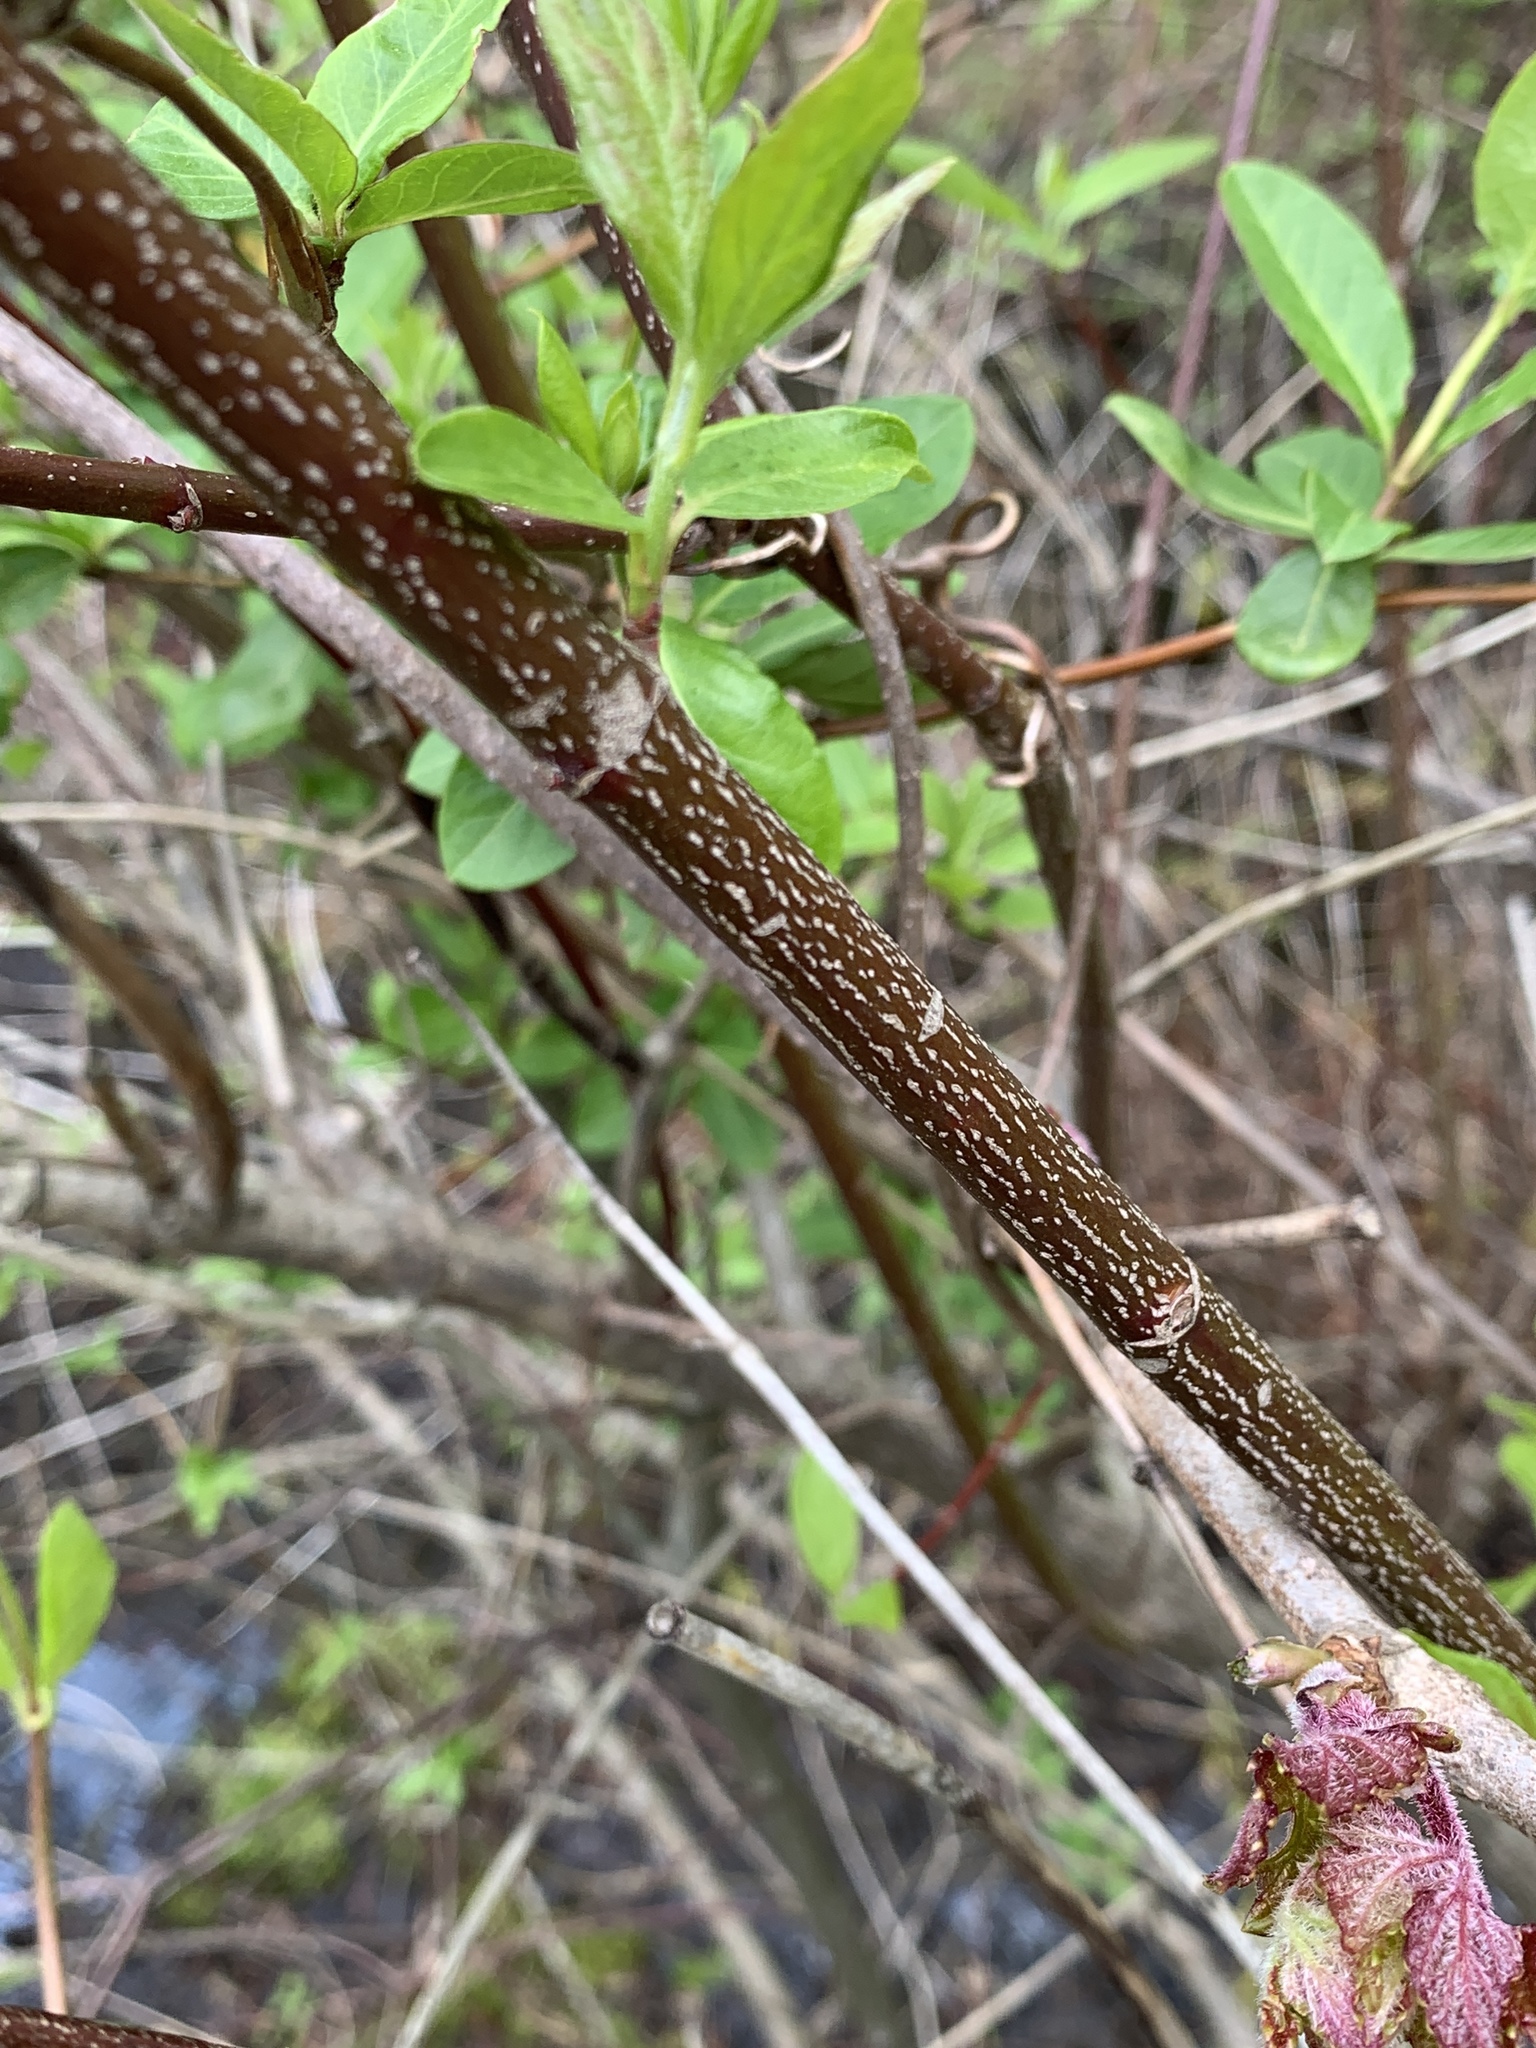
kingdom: Plantae
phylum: Tracheophyta
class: Magnoliopsida
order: Cornales
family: Cornaceae
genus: Cornus
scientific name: Cornus amomum
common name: Silky dogwood
